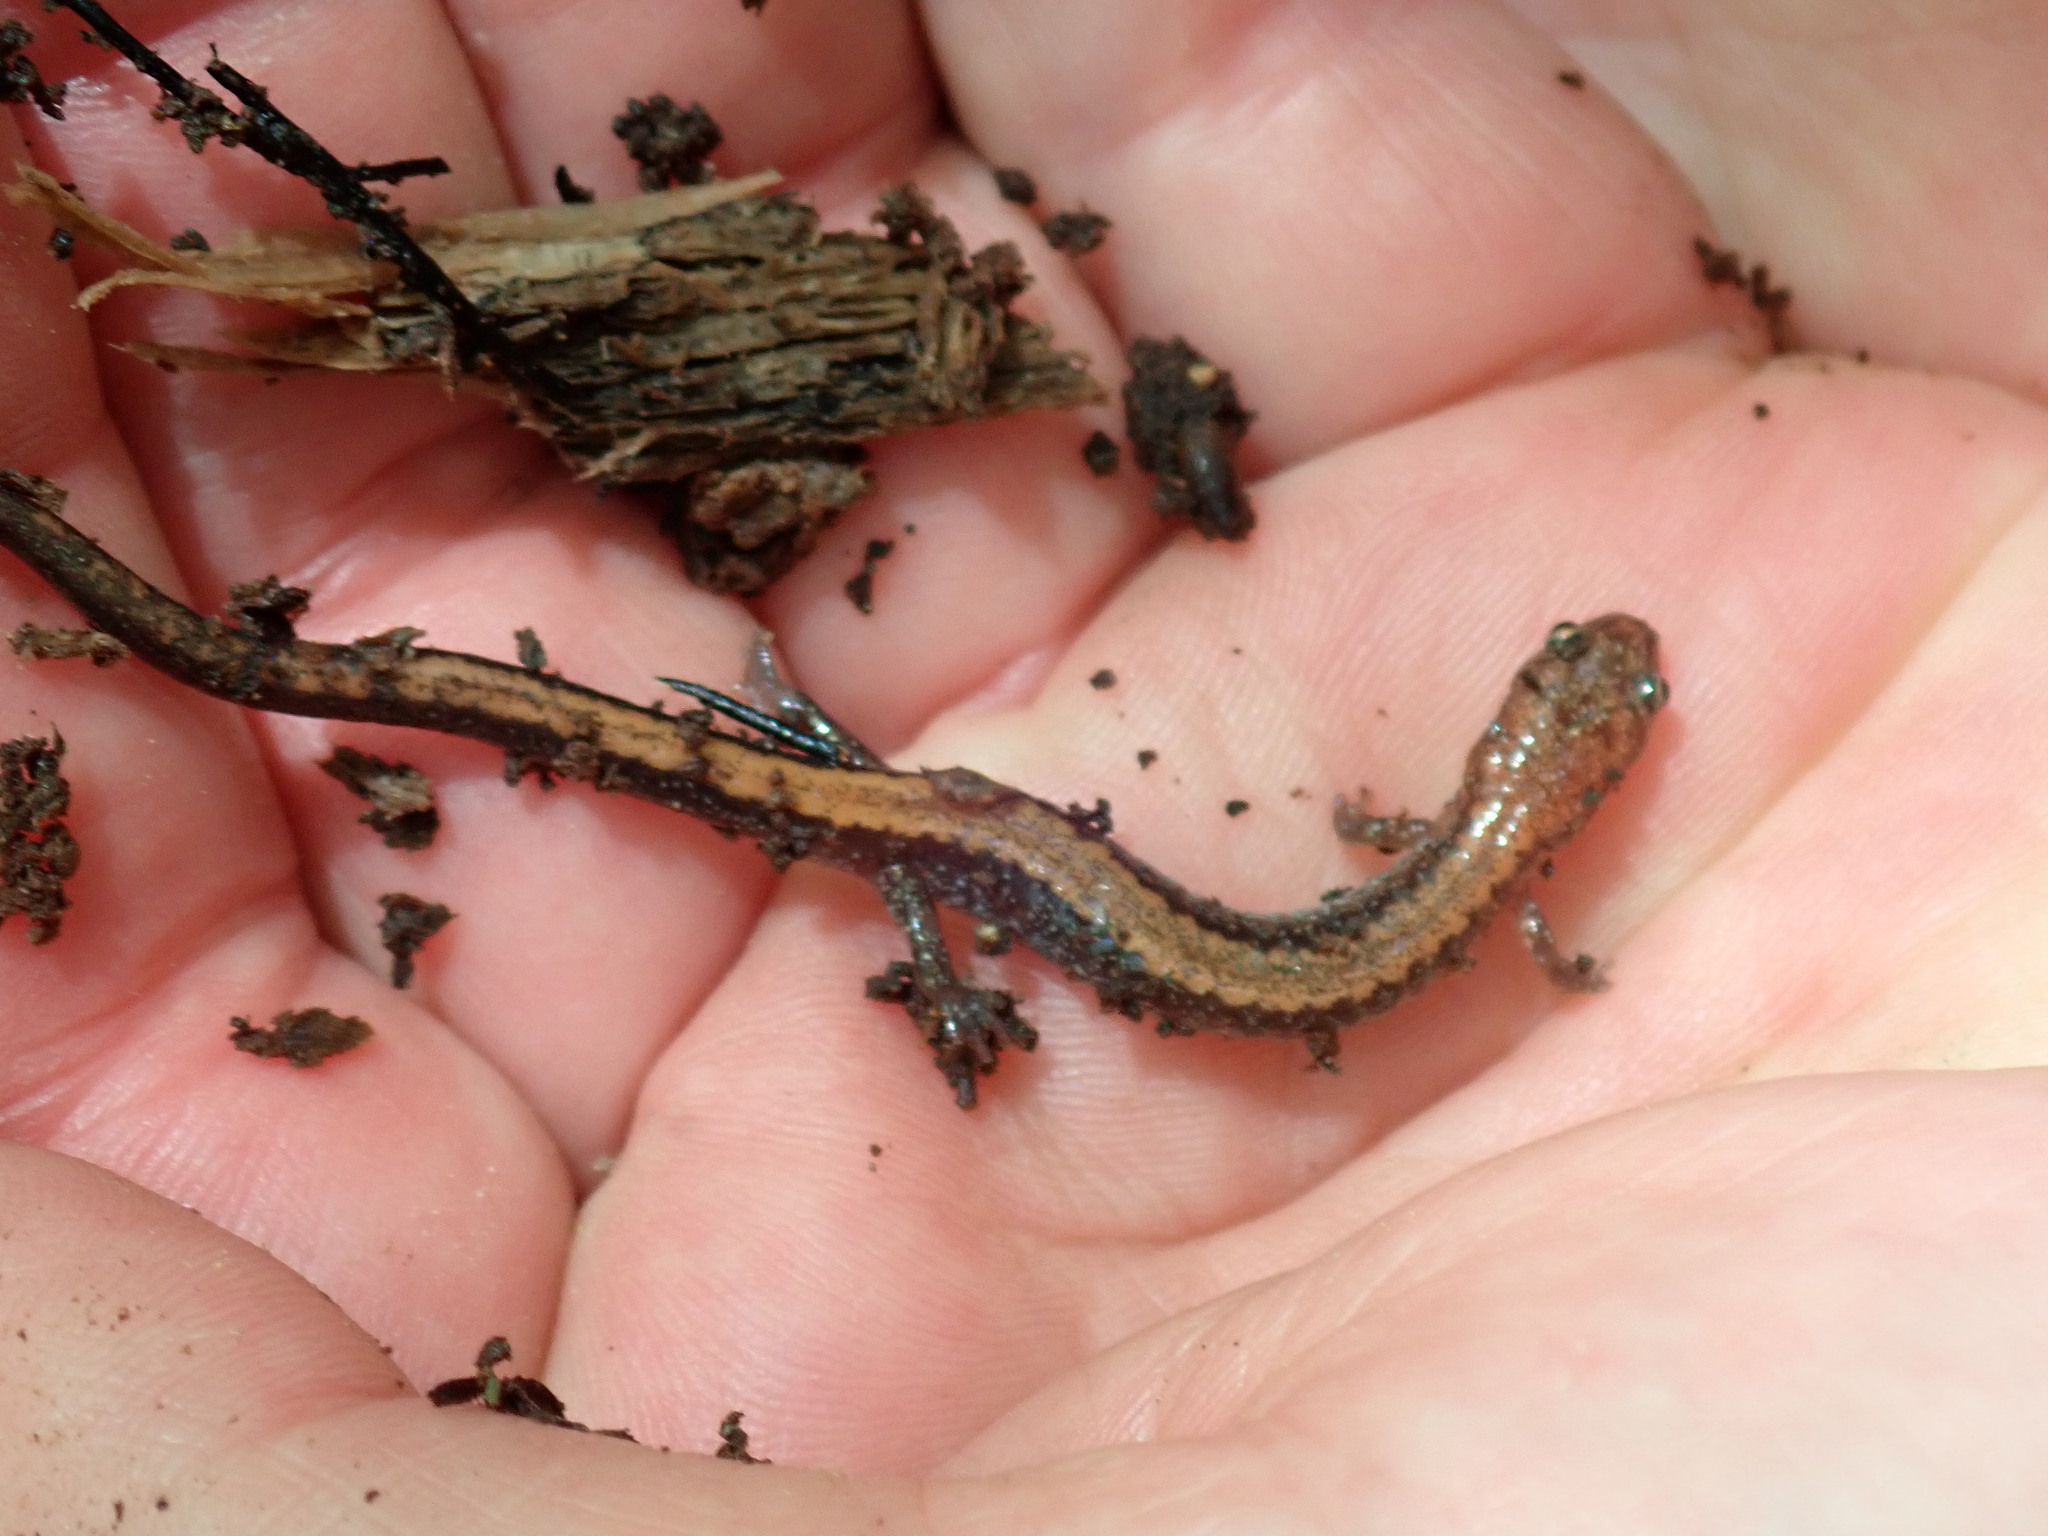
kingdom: Animalia
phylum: Chordata
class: Amphibia
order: Caudata
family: Plethodontidae
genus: Plethodon
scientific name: Plethodon cinereus
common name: Redback salamander
